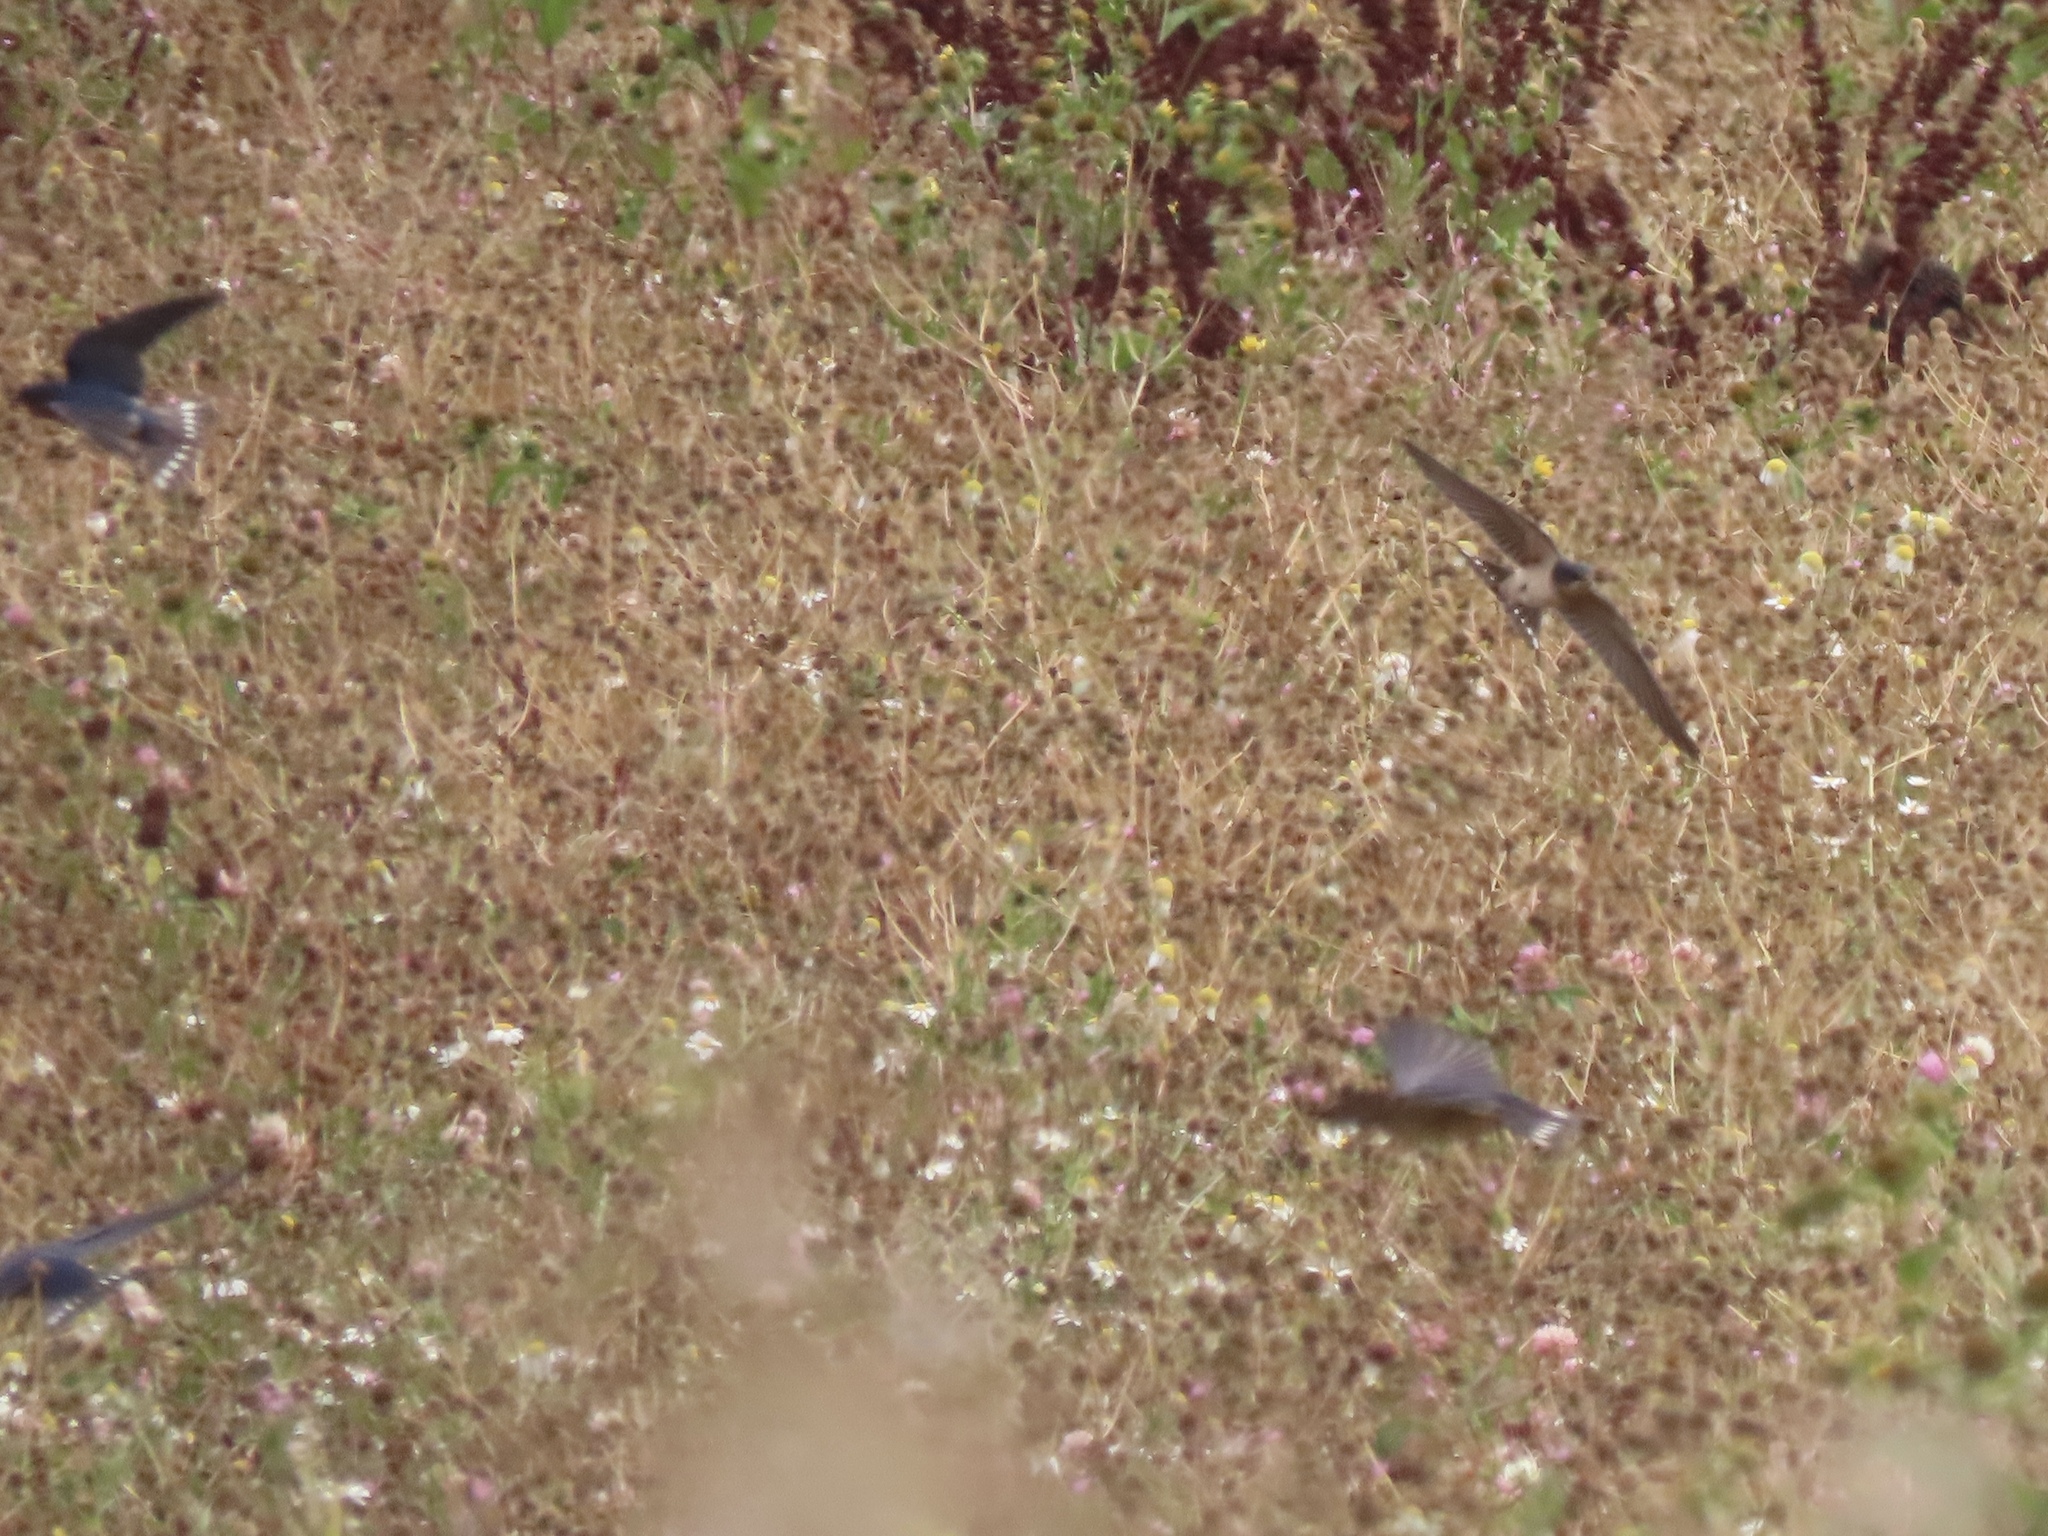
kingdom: Animalia
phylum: Chordata
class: Aves
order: Passeriformes
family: Hirundinidae
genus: Hirundo
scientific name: Hirundo rustica
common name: Barn swallow
